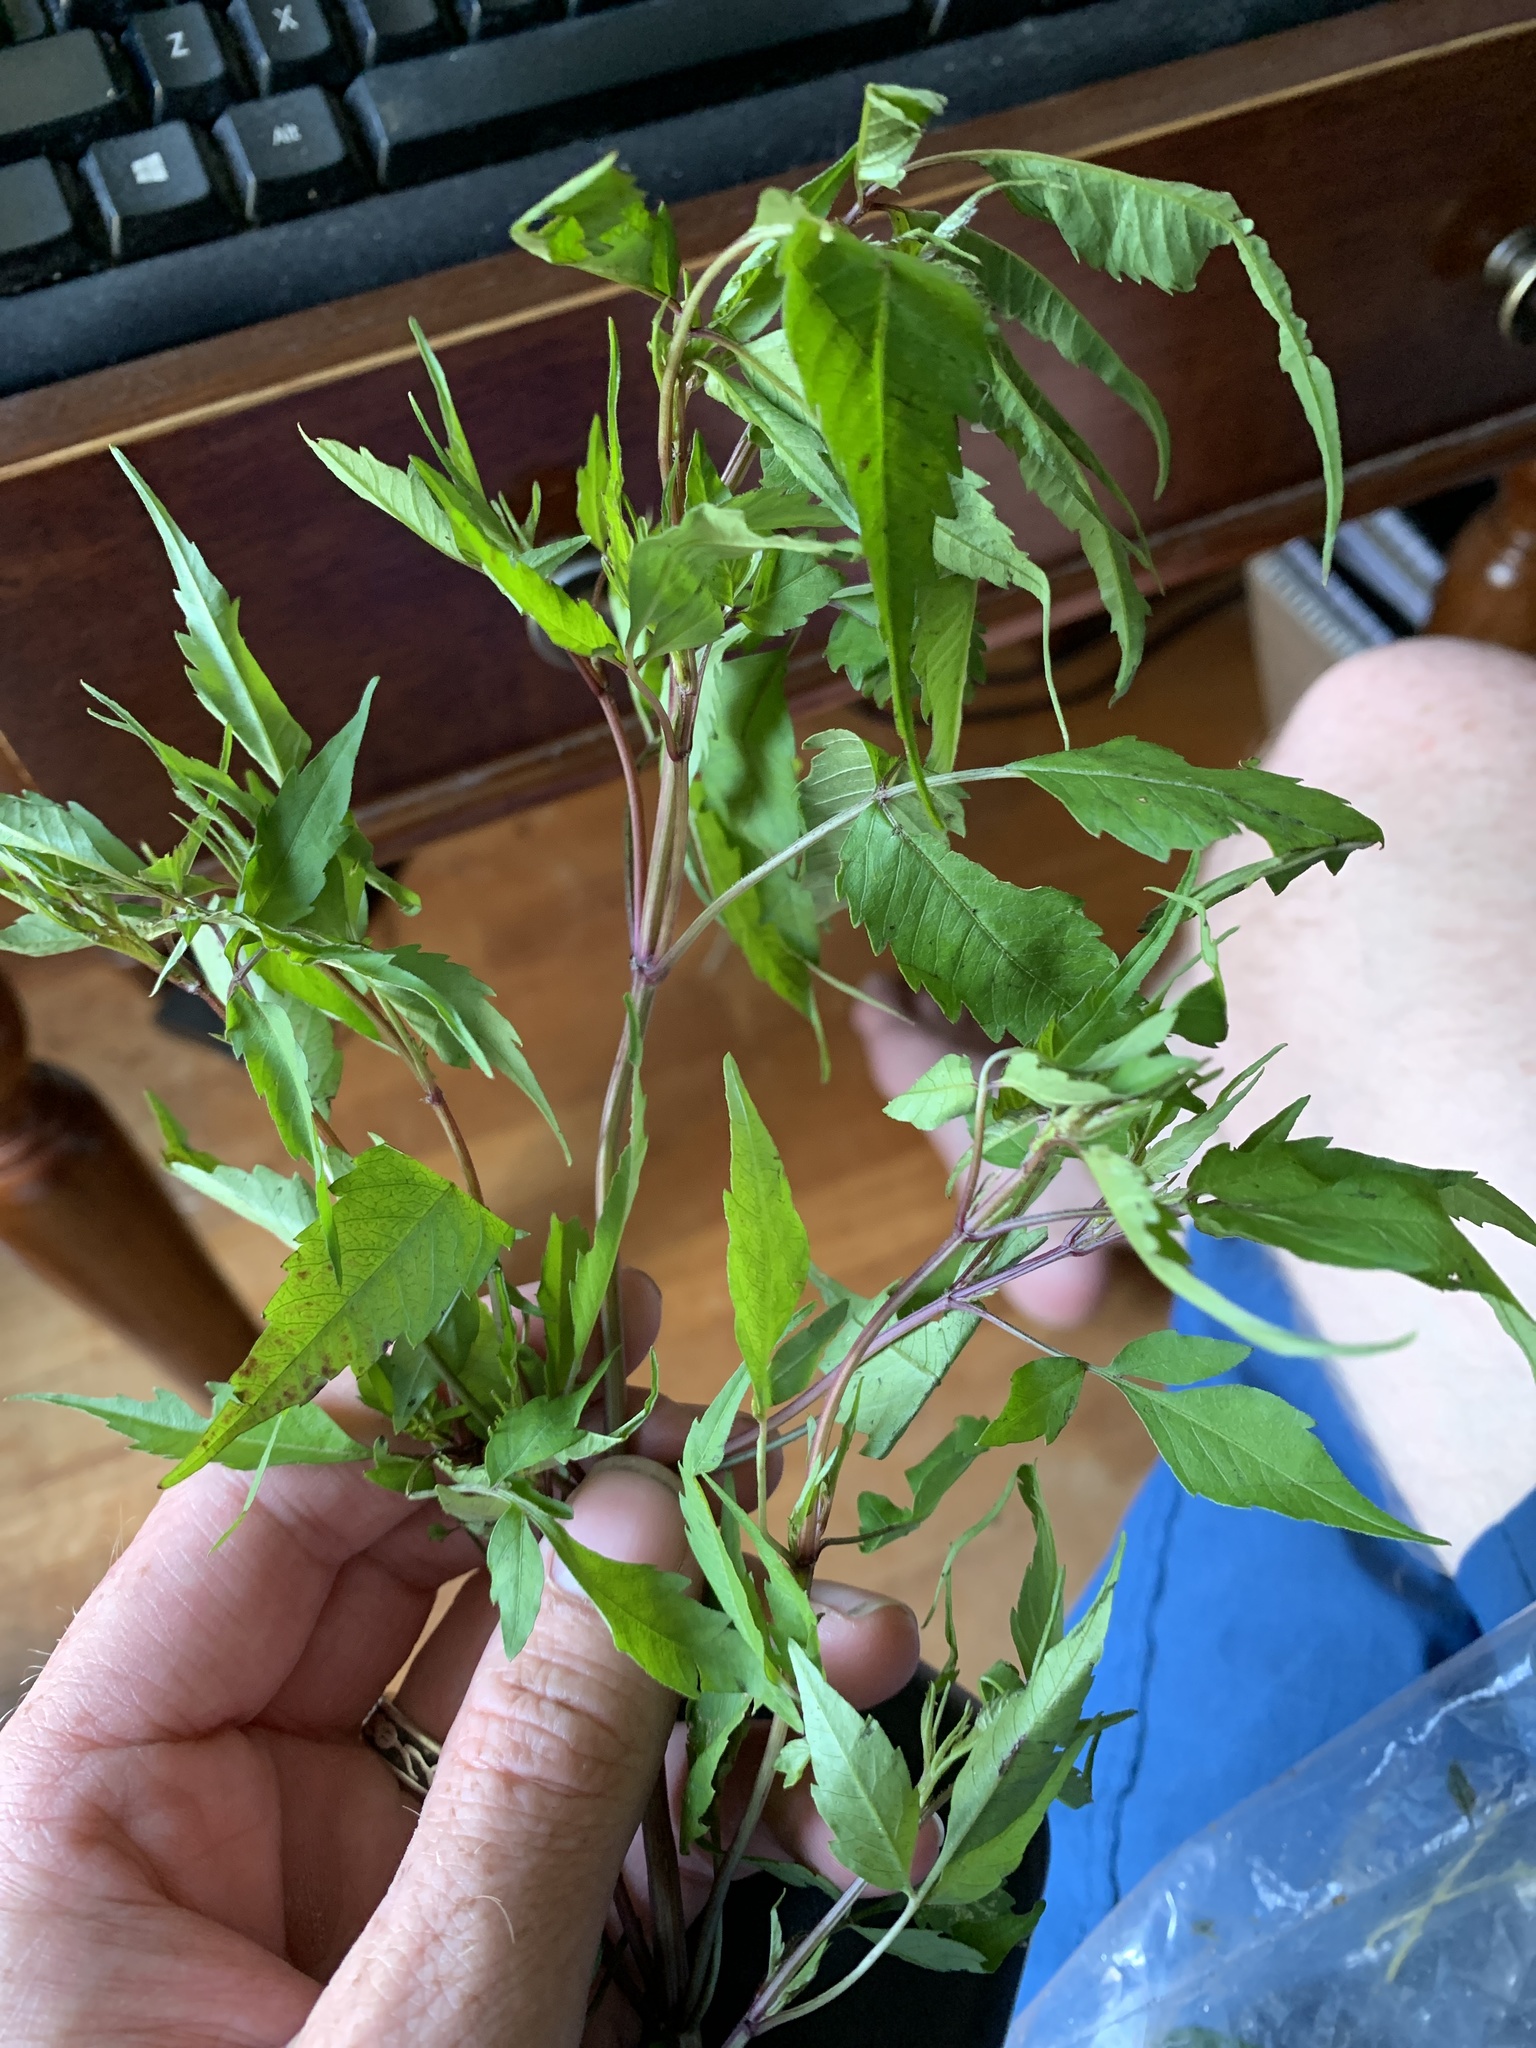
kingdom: Plantae
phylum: Tracheophyta
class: Magnoliopsida
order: Asterales
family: Asteraceae
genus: Bidens
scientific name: Bidens frondosa
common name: Beggarticks
